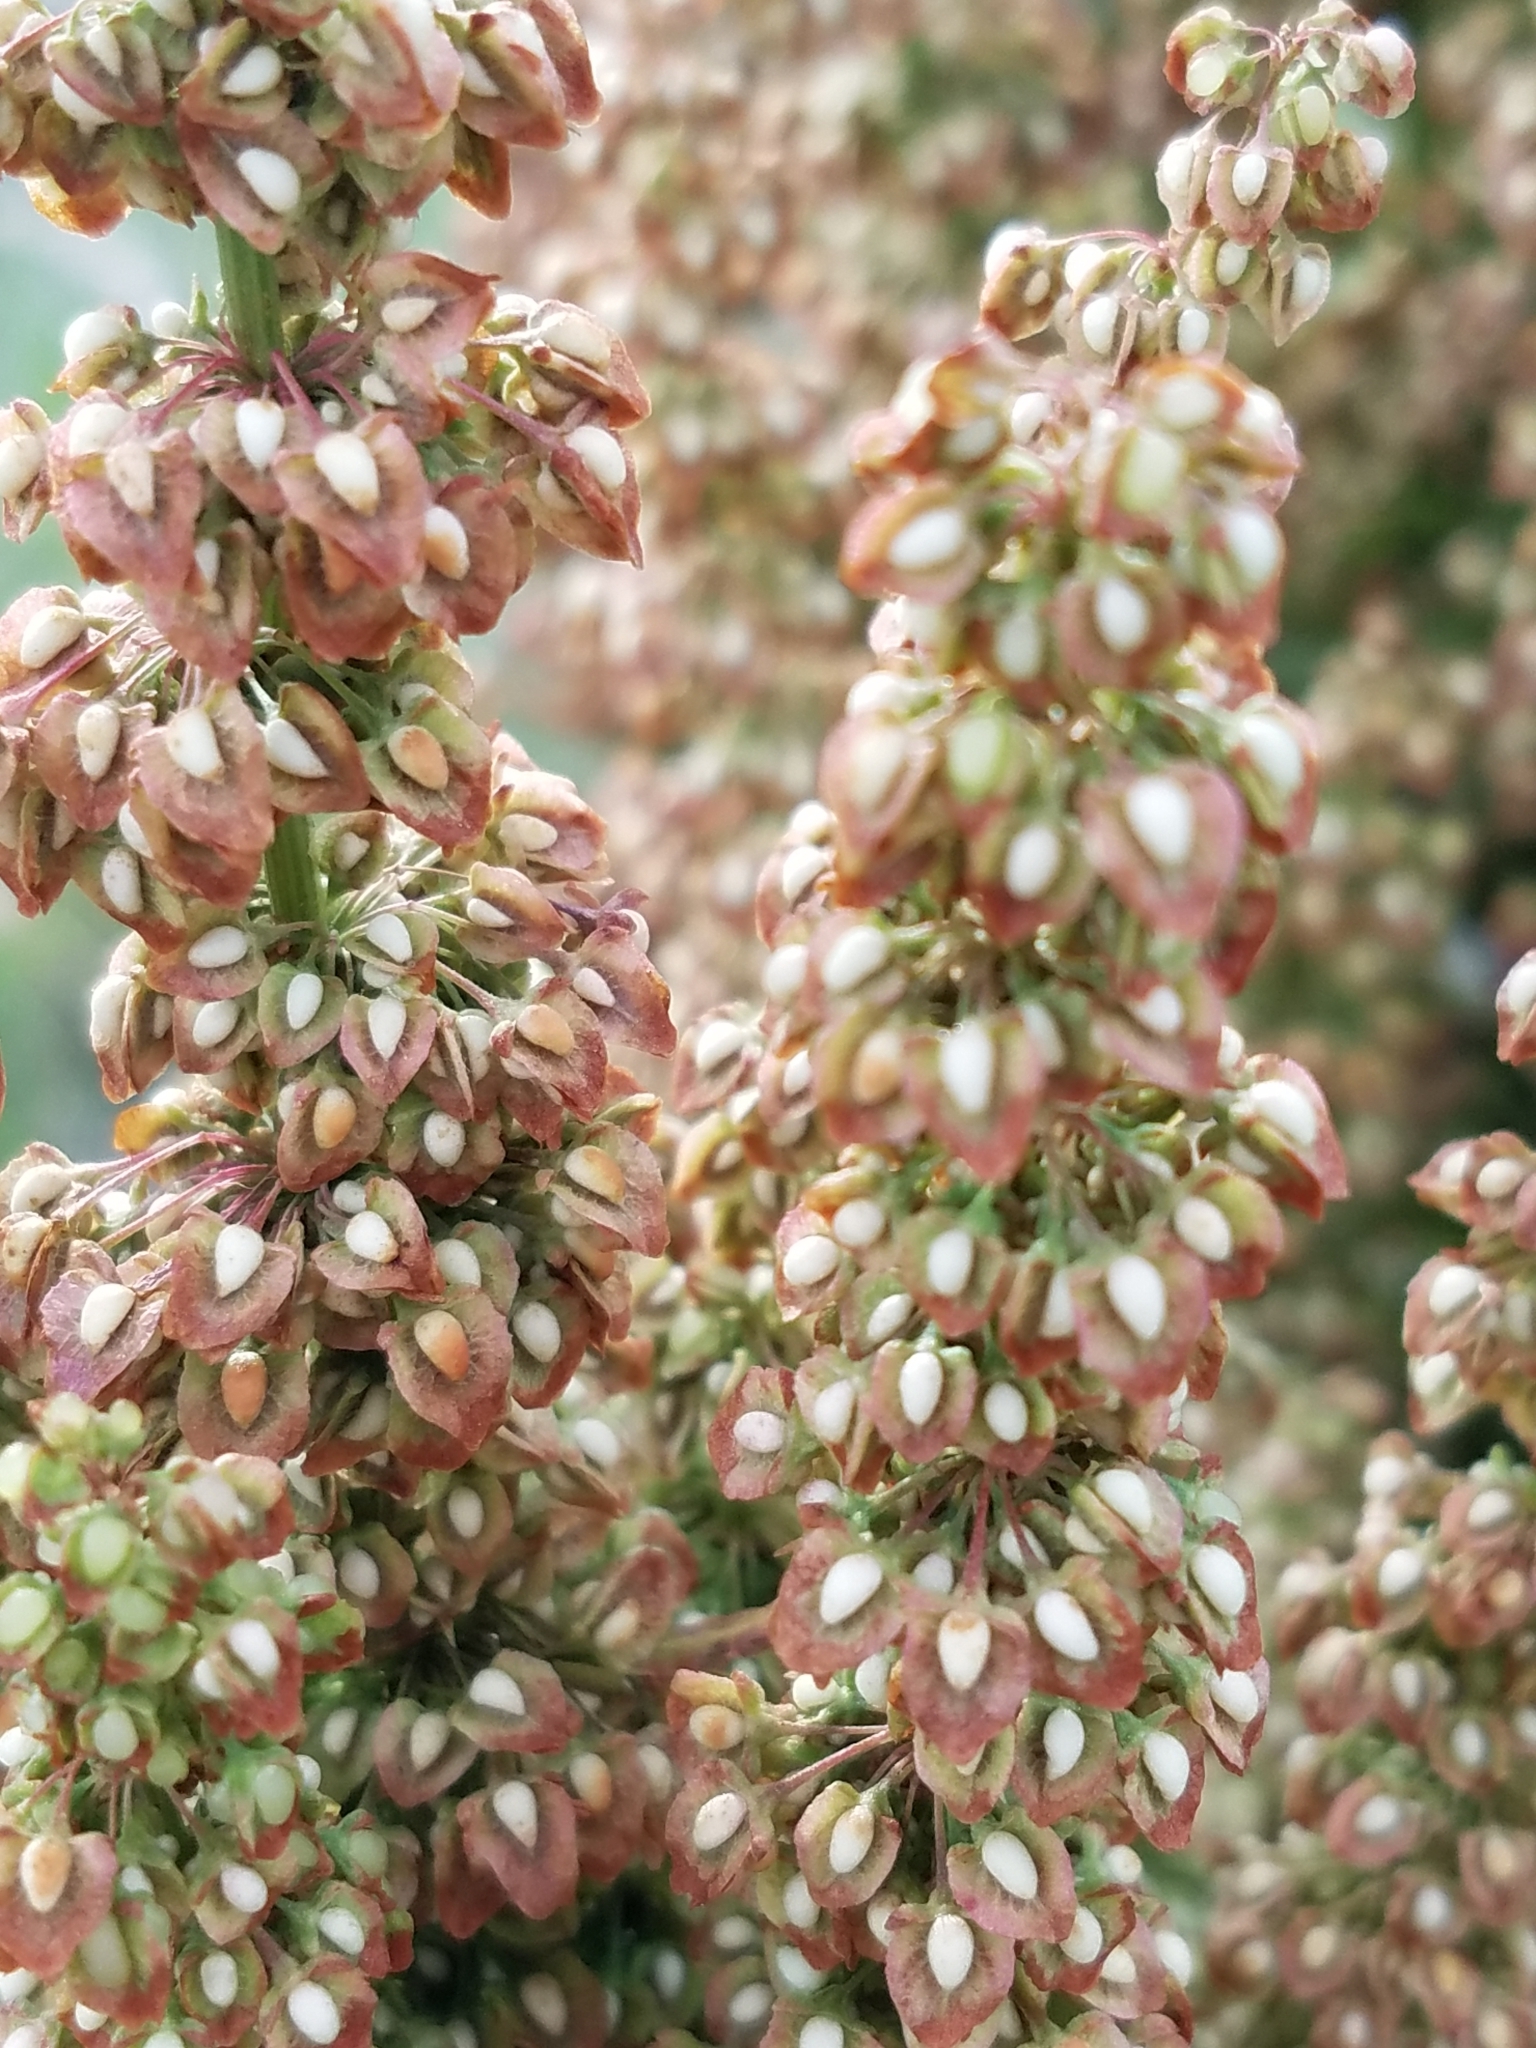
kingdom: Plantae
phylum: Tracheophyta
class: Magnoliopsida
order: Caryophyllales
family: Polygonaceae
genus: Rumex
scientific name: Rumex crispus
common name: Curled dock
